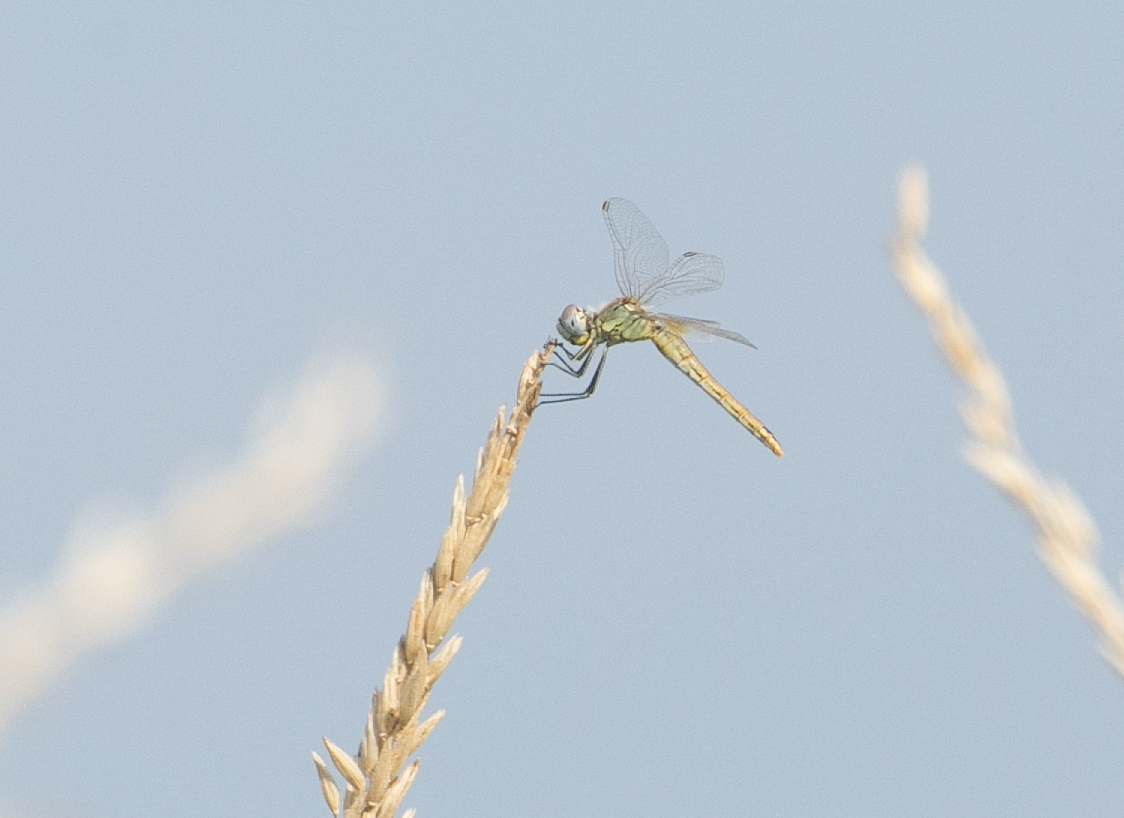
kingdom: Animalia
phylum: Arthropoda
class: Insecta
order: Odonata
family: Libellulidae
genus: Sympetrum
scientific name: Sympetrum fonscolombii
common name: Red-veined darter
